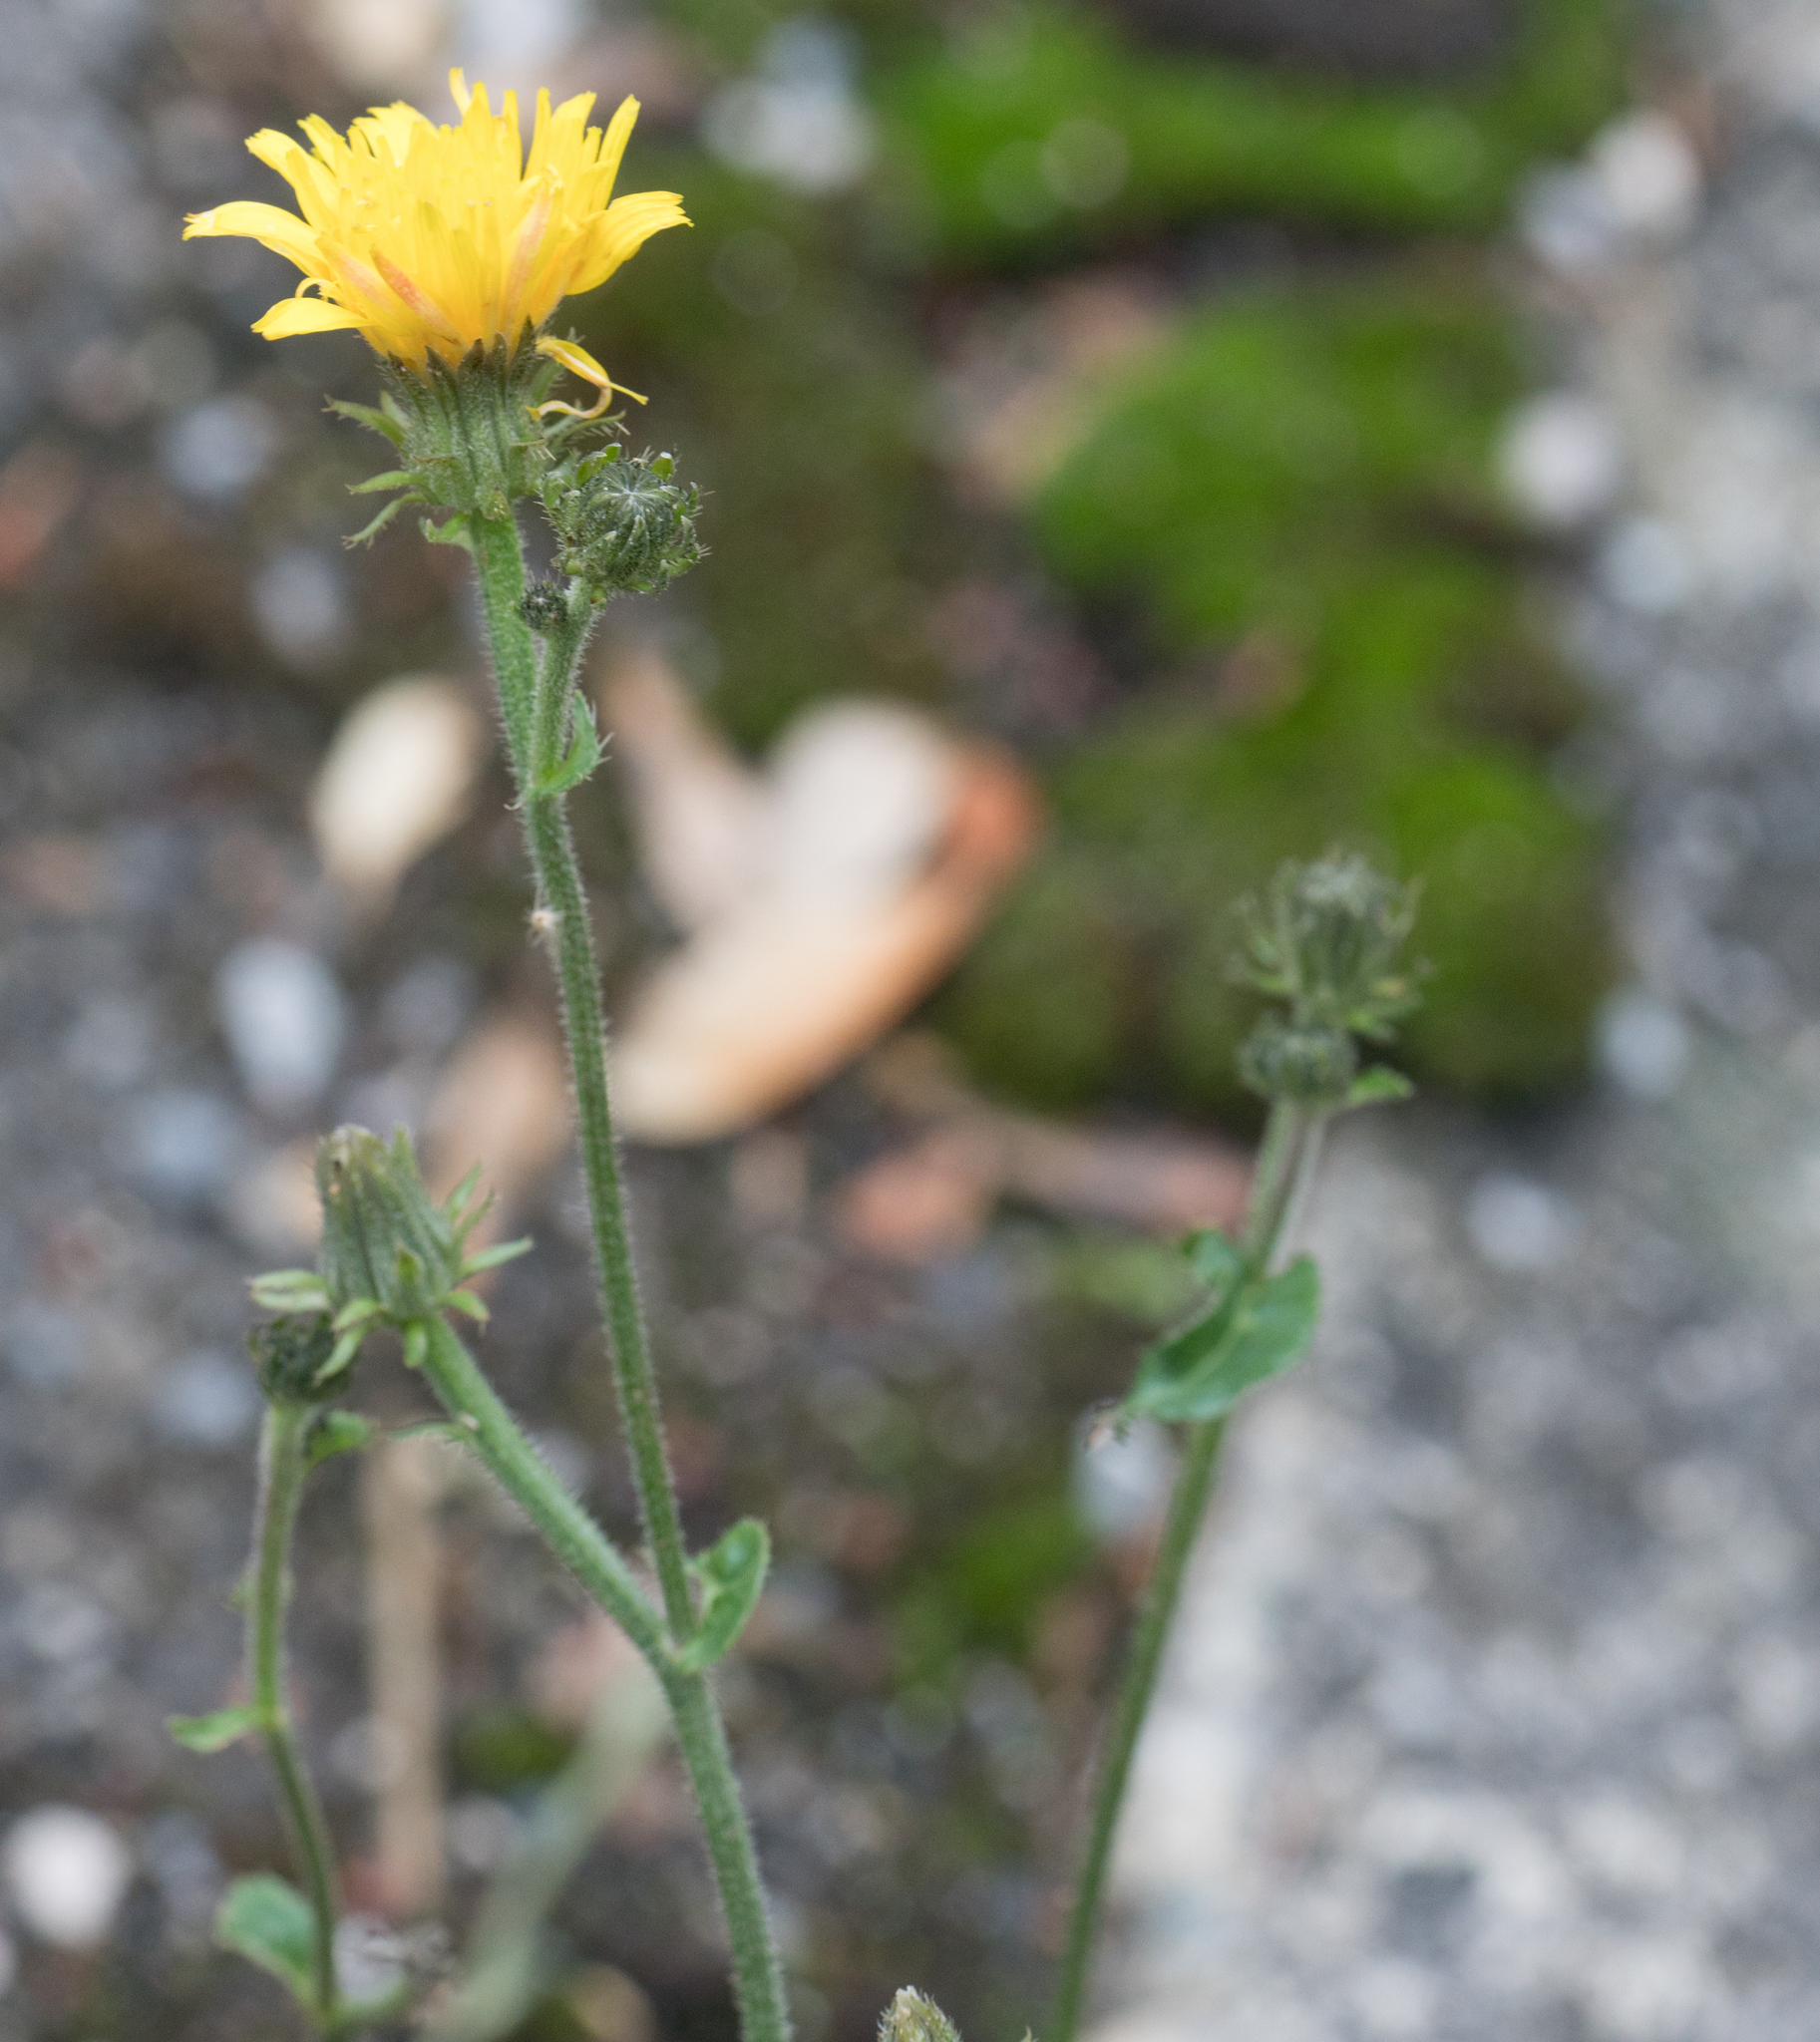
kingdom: Plantae
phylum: Tracheophyta
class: Magnoliopsida
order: Asterales
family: Asteraceae
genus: Picris
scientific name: Picris hieracioides
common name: Hawkweed oxtongue
